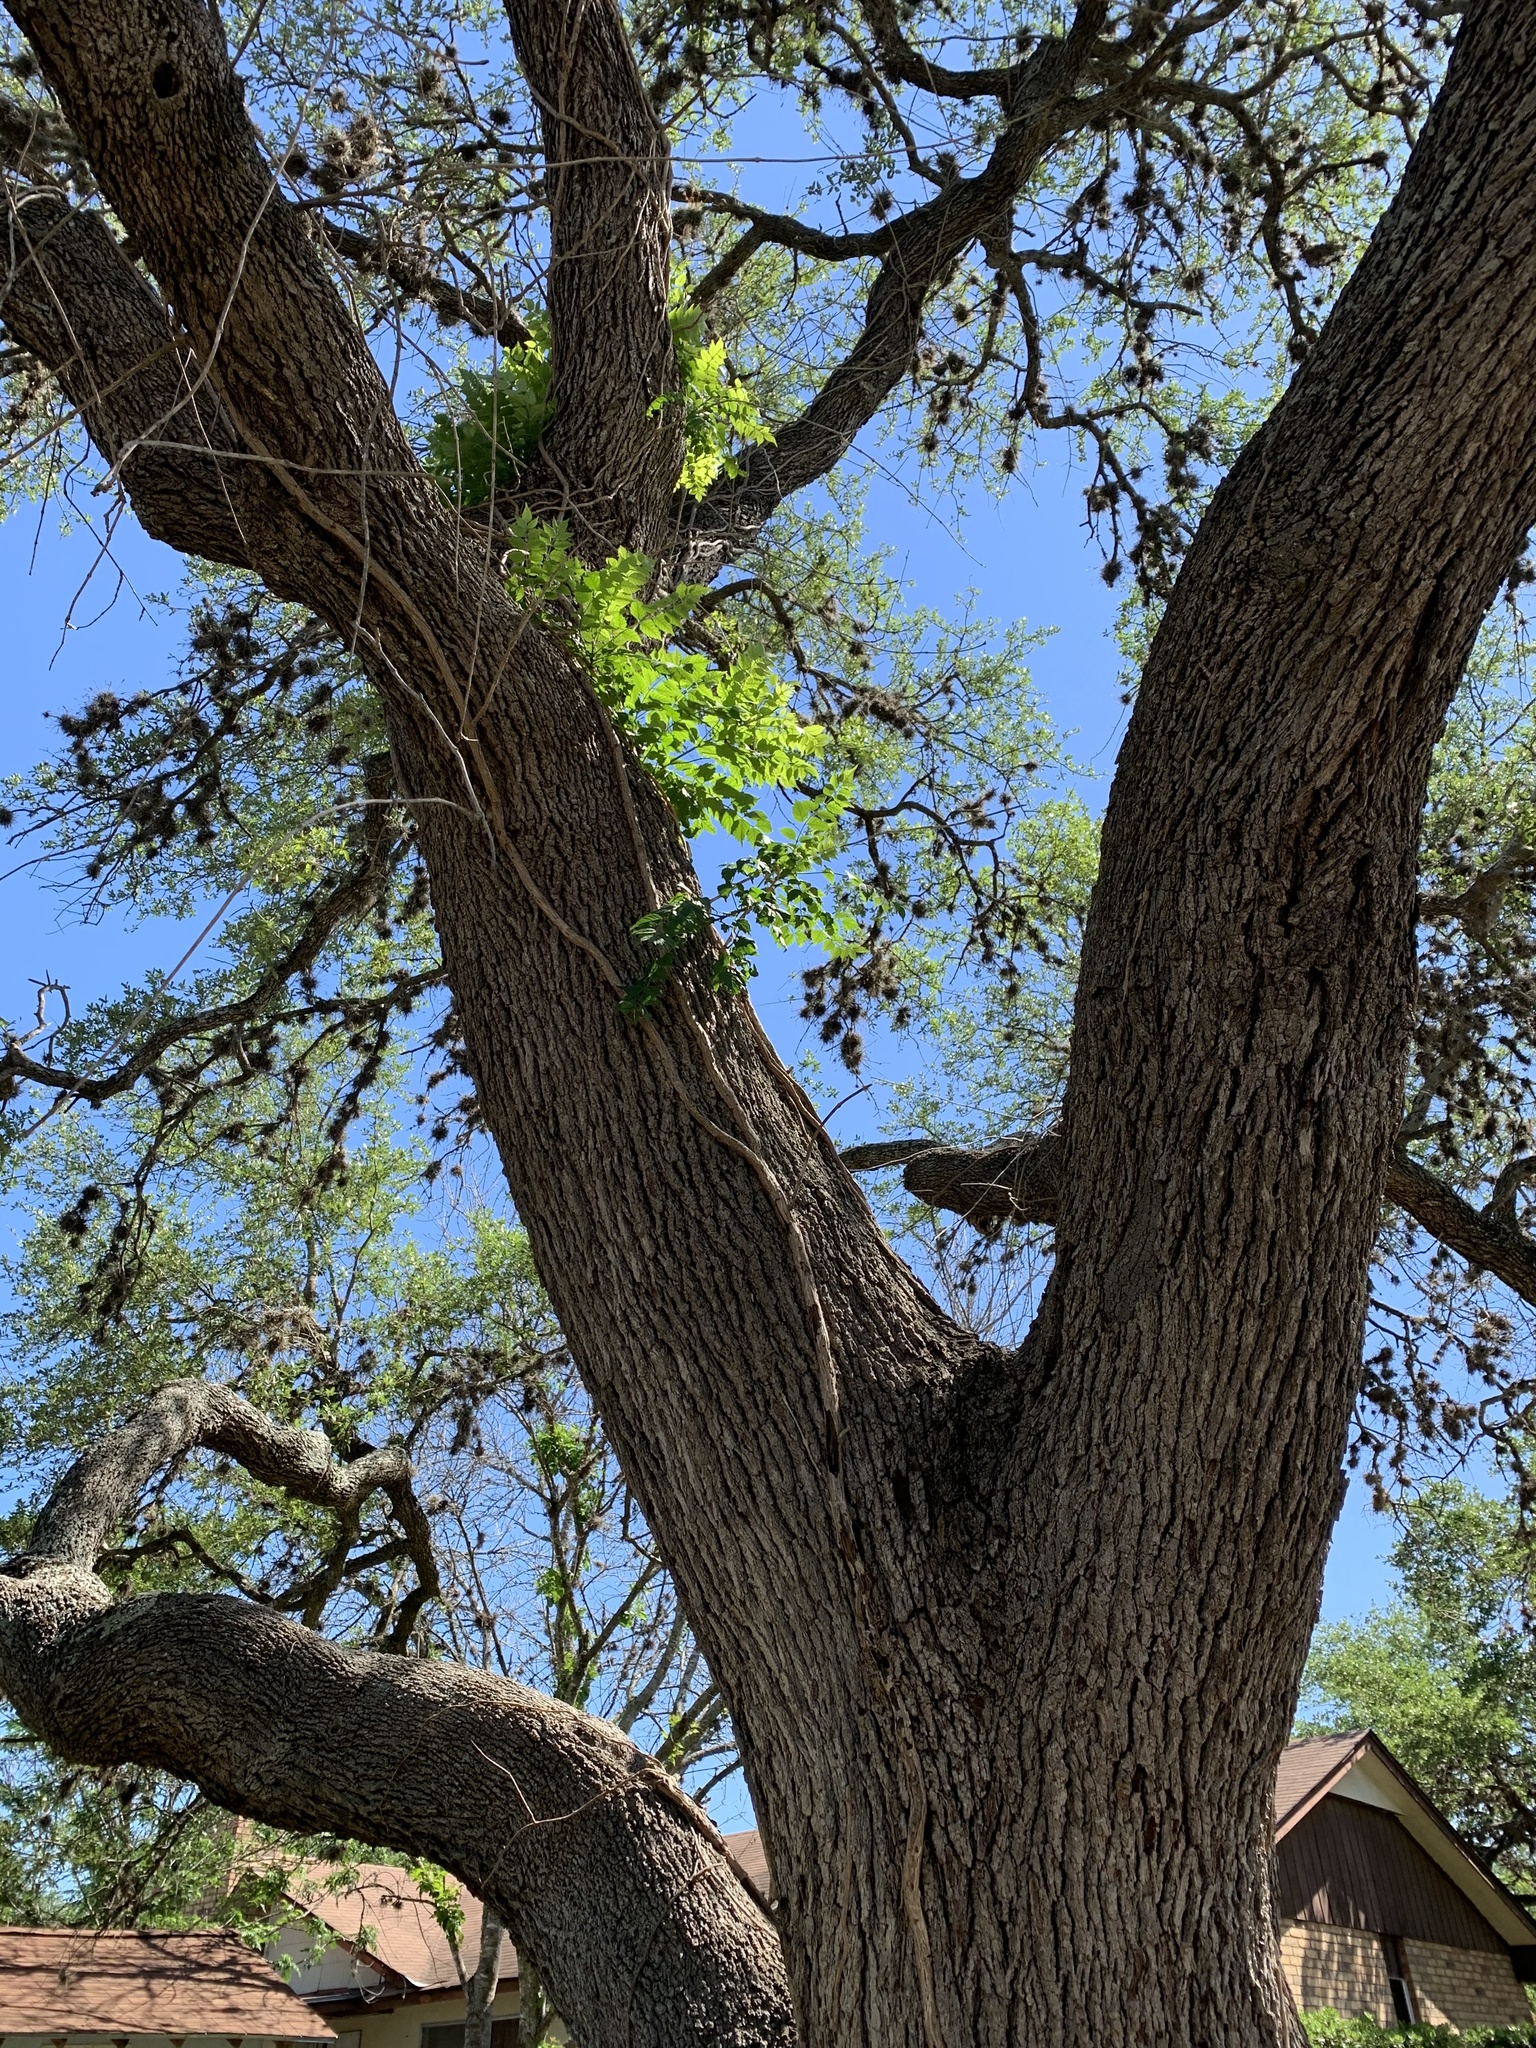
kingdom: Plantae
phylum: Tracheophyta
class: Magnoliopsida
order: Lamiales
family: Bignoniaceae
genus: Campsis
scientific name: Campsis radicans
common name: Trumpet-creeper
